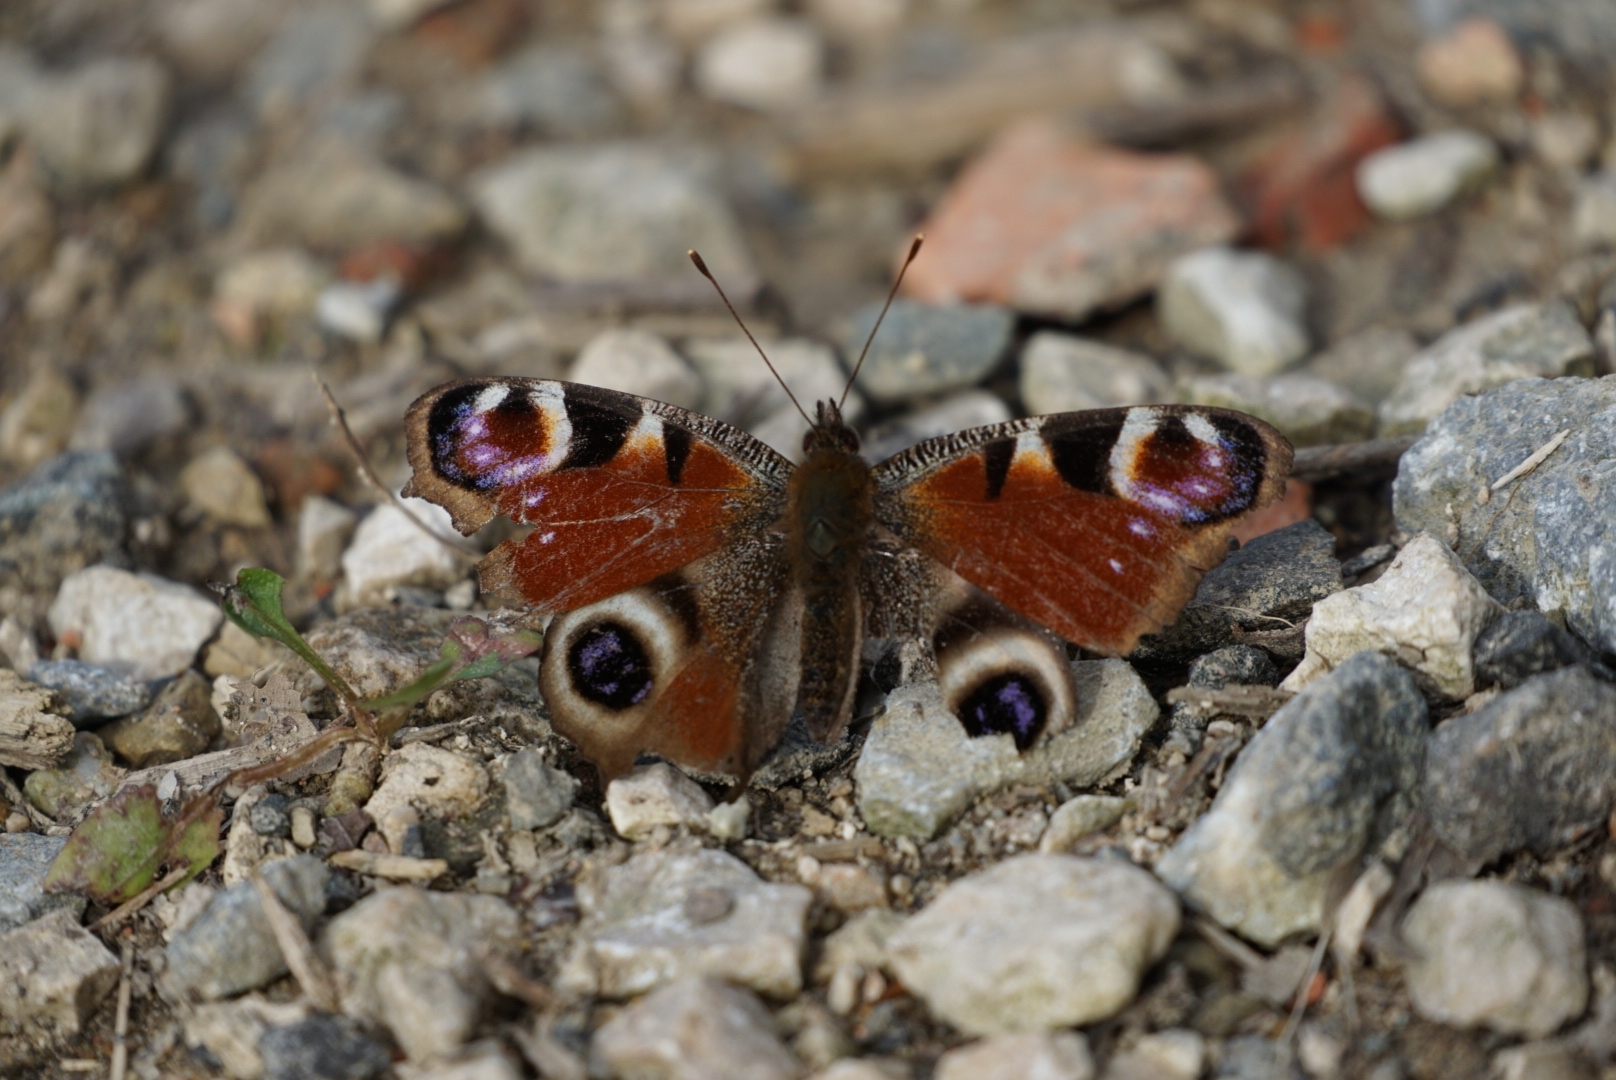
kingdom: Animalia
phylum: Arthropoda
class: Insecta
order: Lepidoptera
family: Nymphalidae
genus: Aglais
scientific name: Aglais io
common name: Peacock
